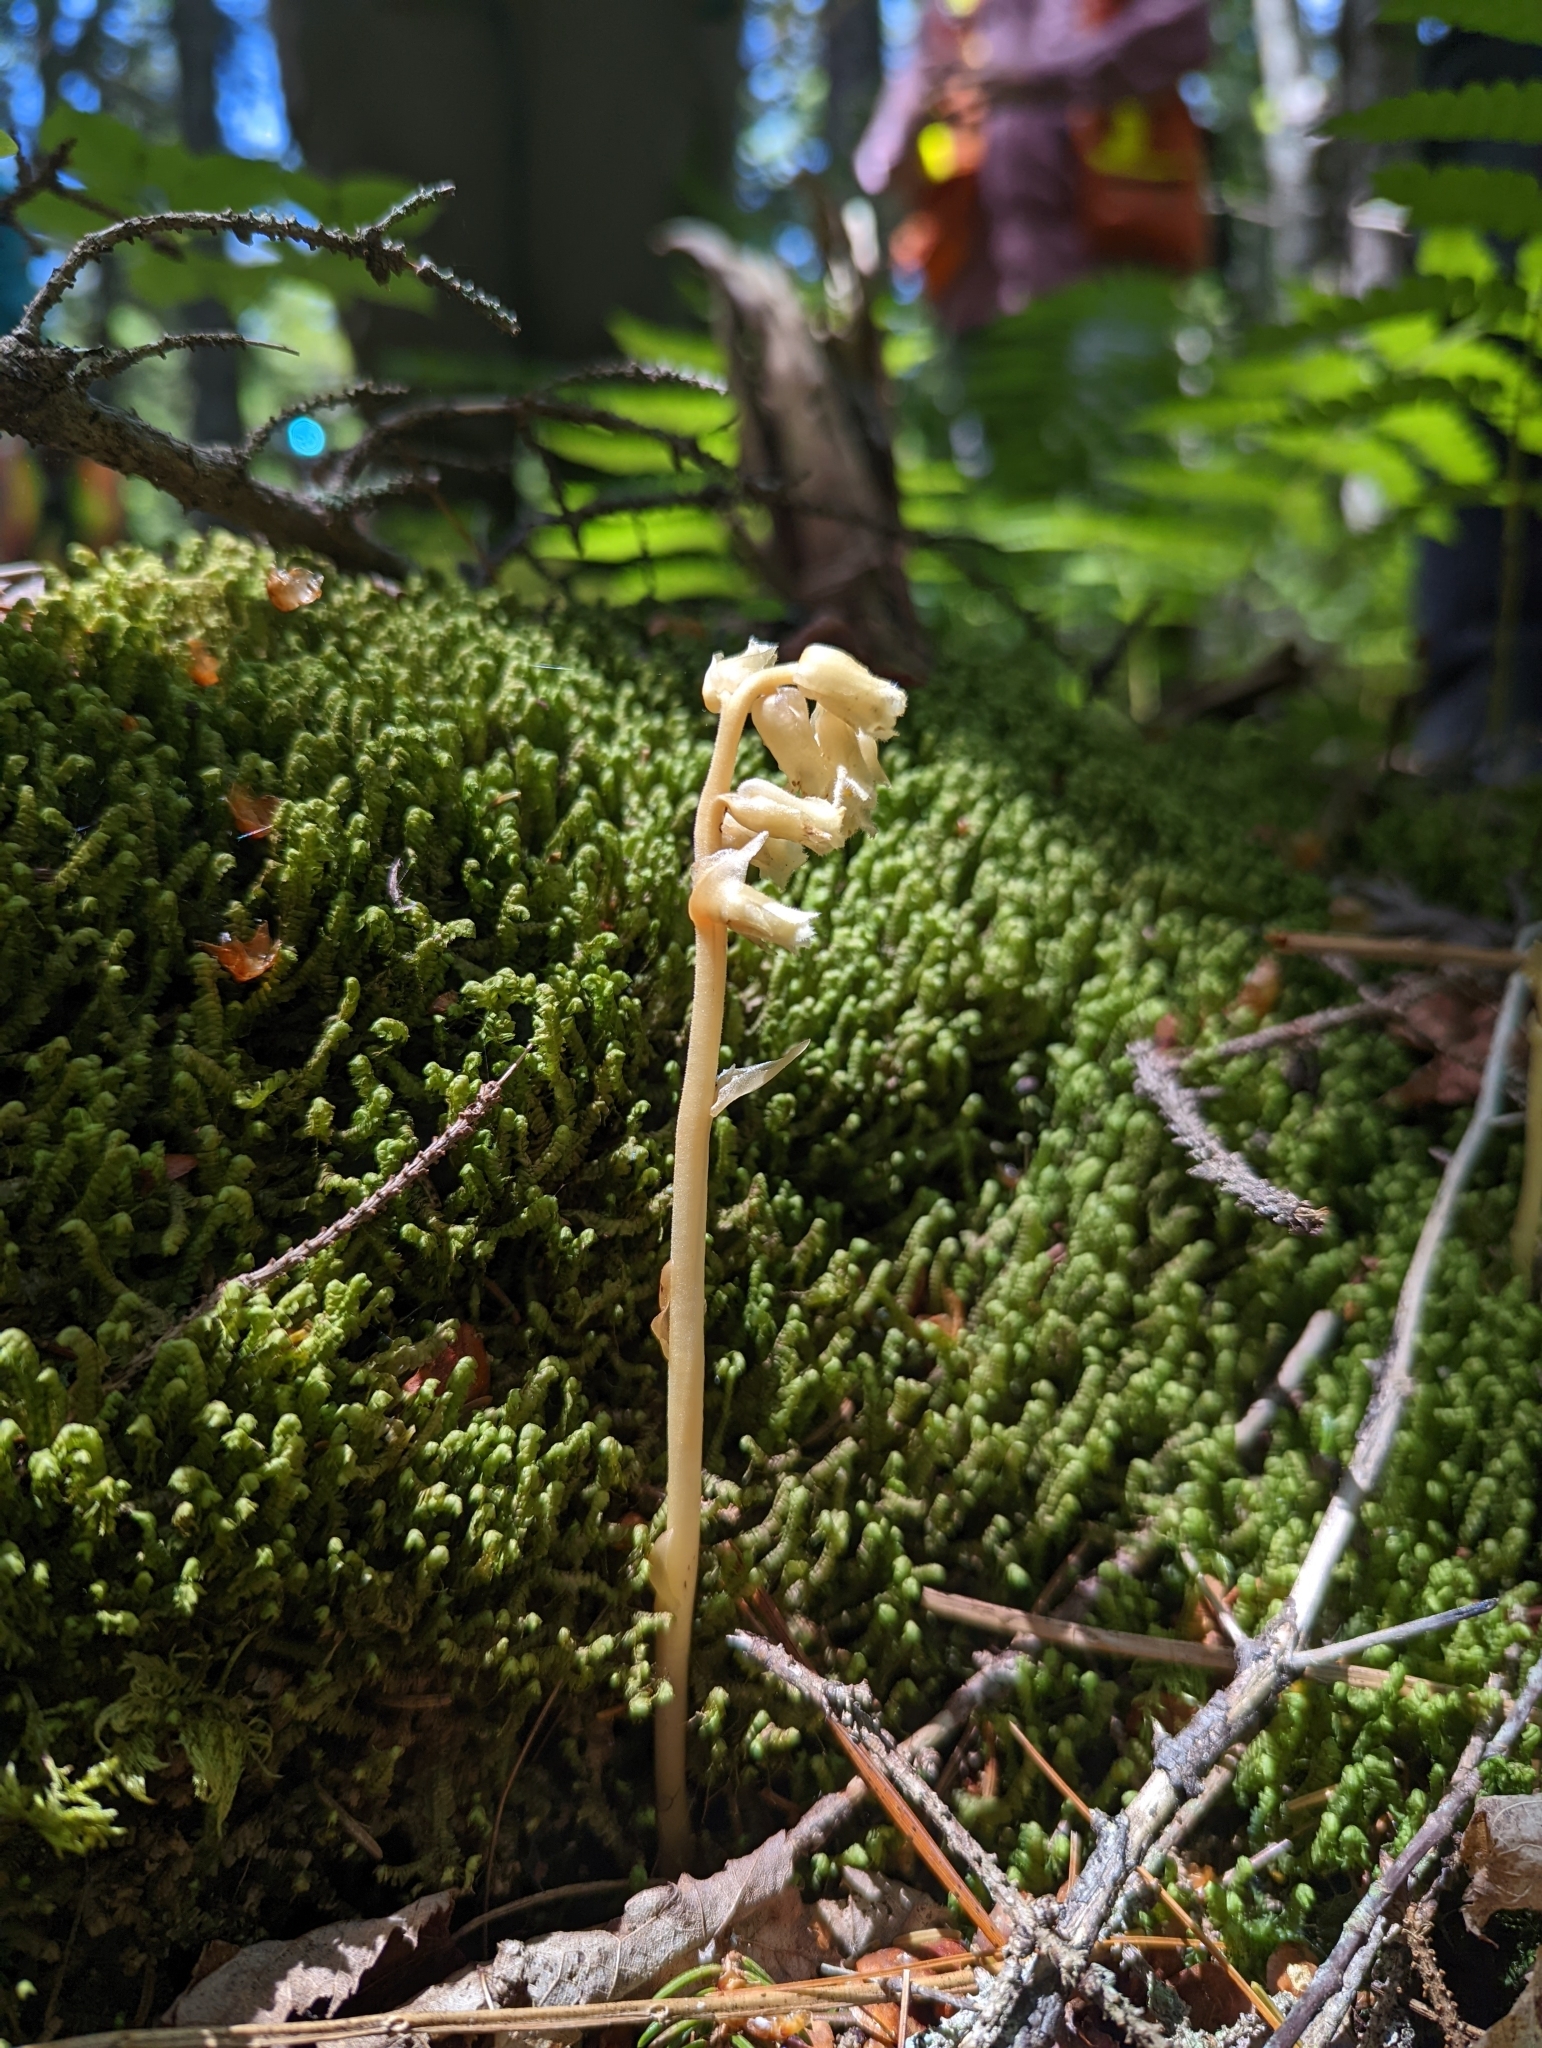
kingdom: Plantae
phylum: Tracheophyta
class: Magnoliopsida
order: Ericales
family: Ericaceae
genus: Hypopitys
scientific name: Hypopitys monotropa
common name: Yellow bird's-nest
